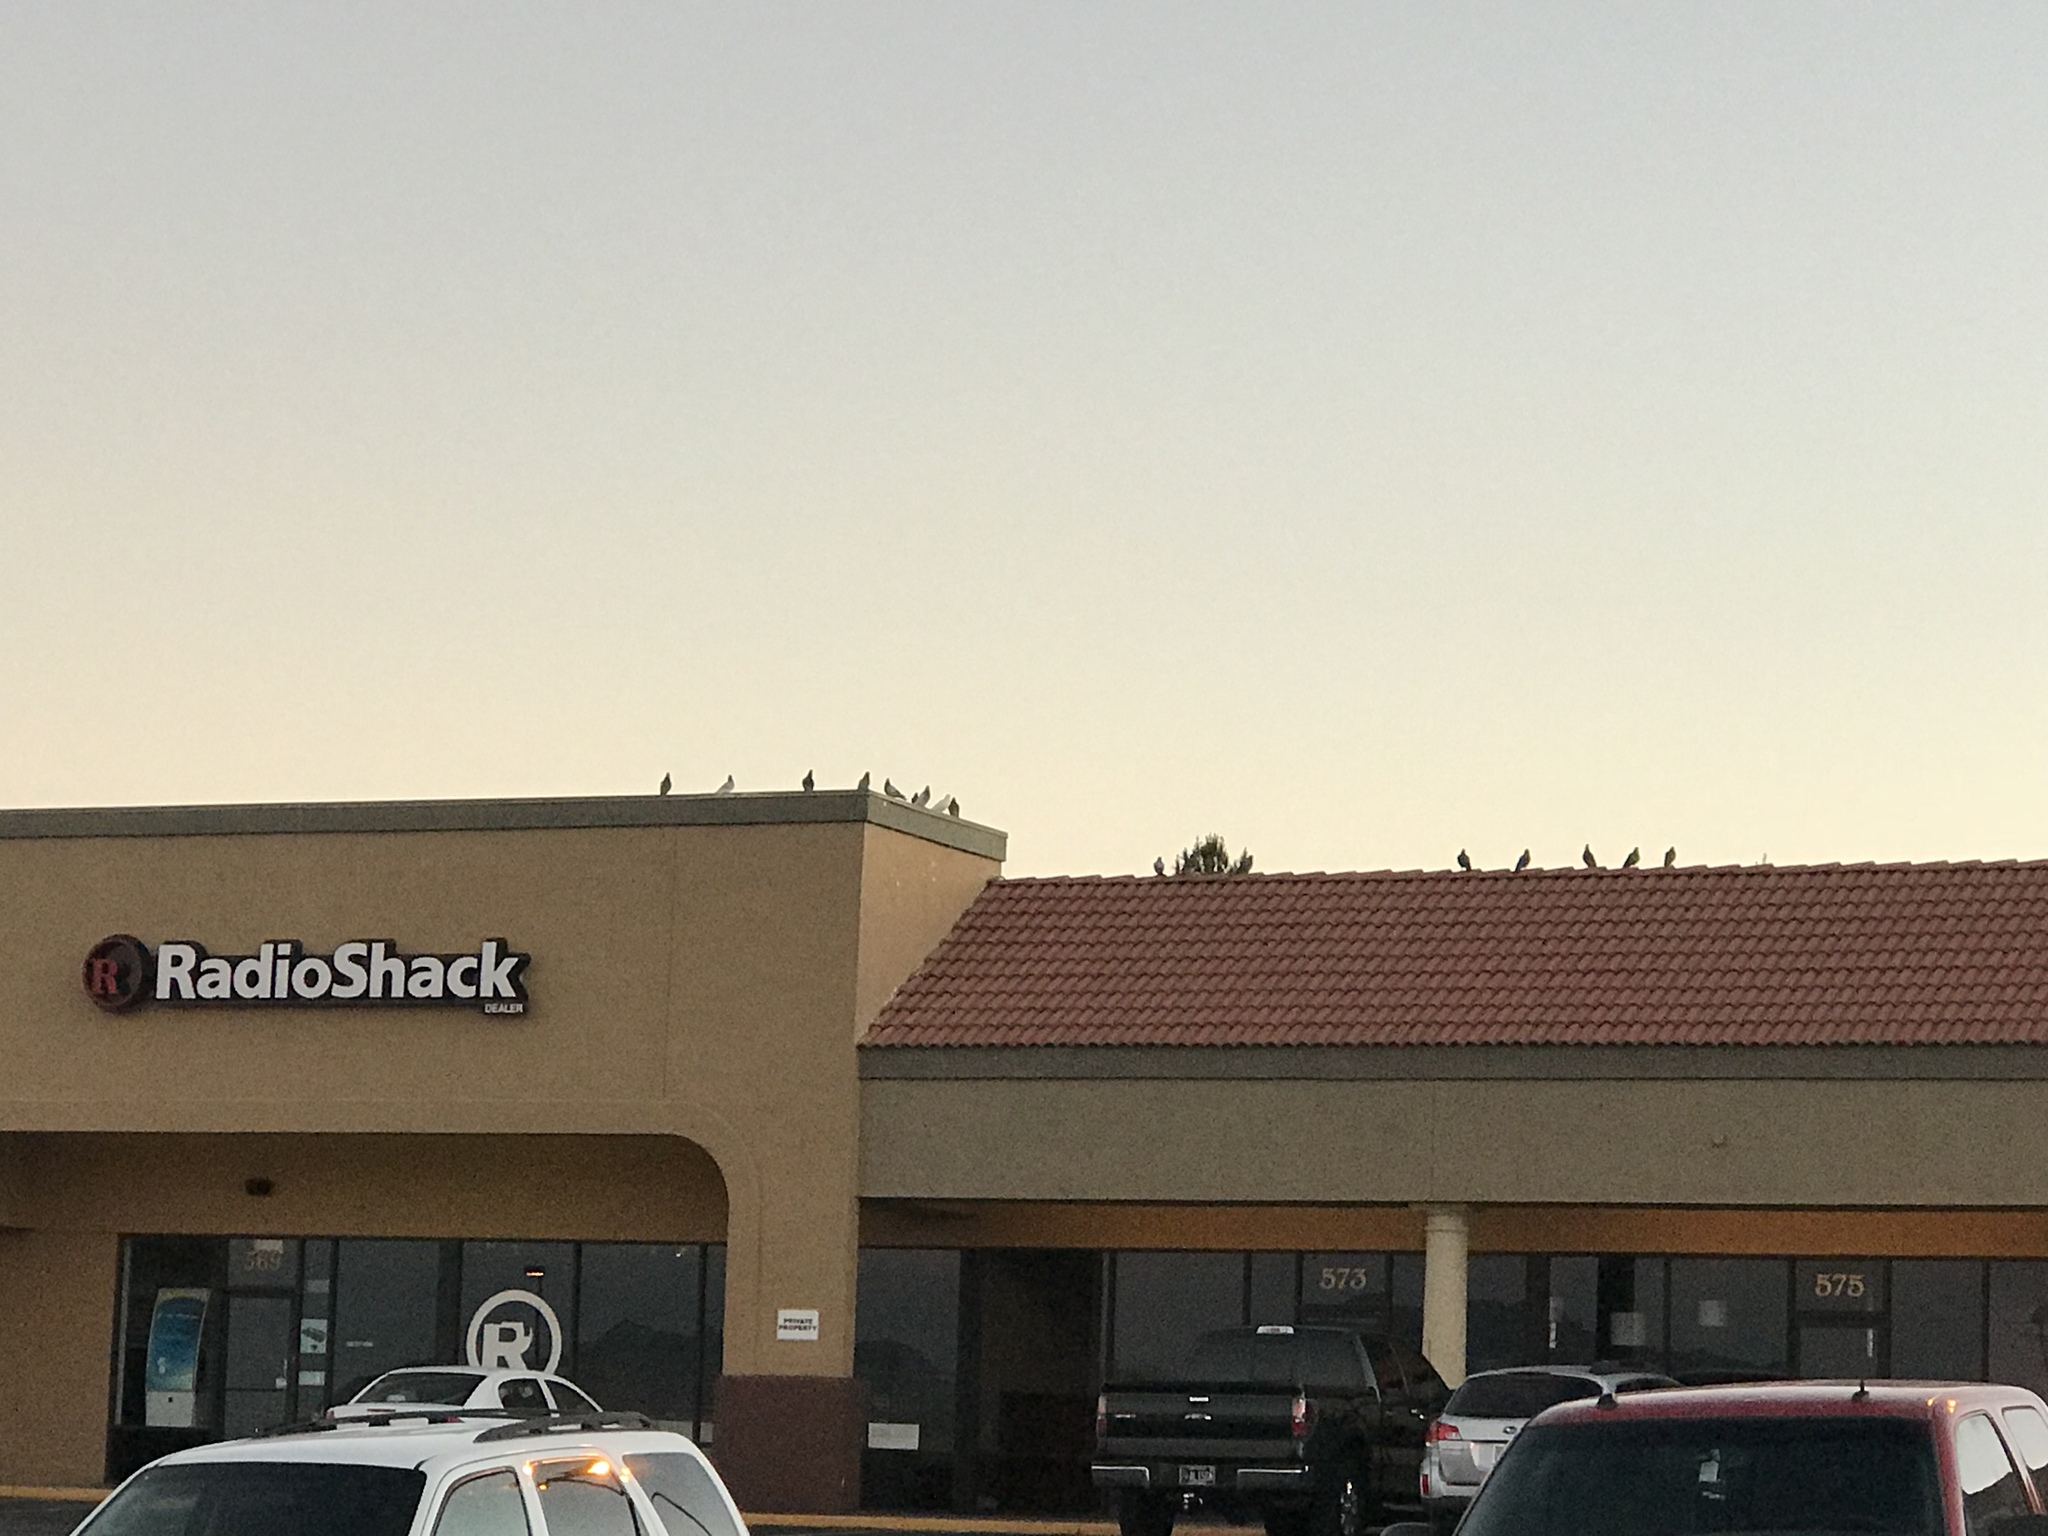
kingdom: Animalia
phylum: Chordata
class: Aves
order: Columbiformes
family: Columbidae
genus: Columba
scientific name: Columba livia
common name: Rock pigeon
